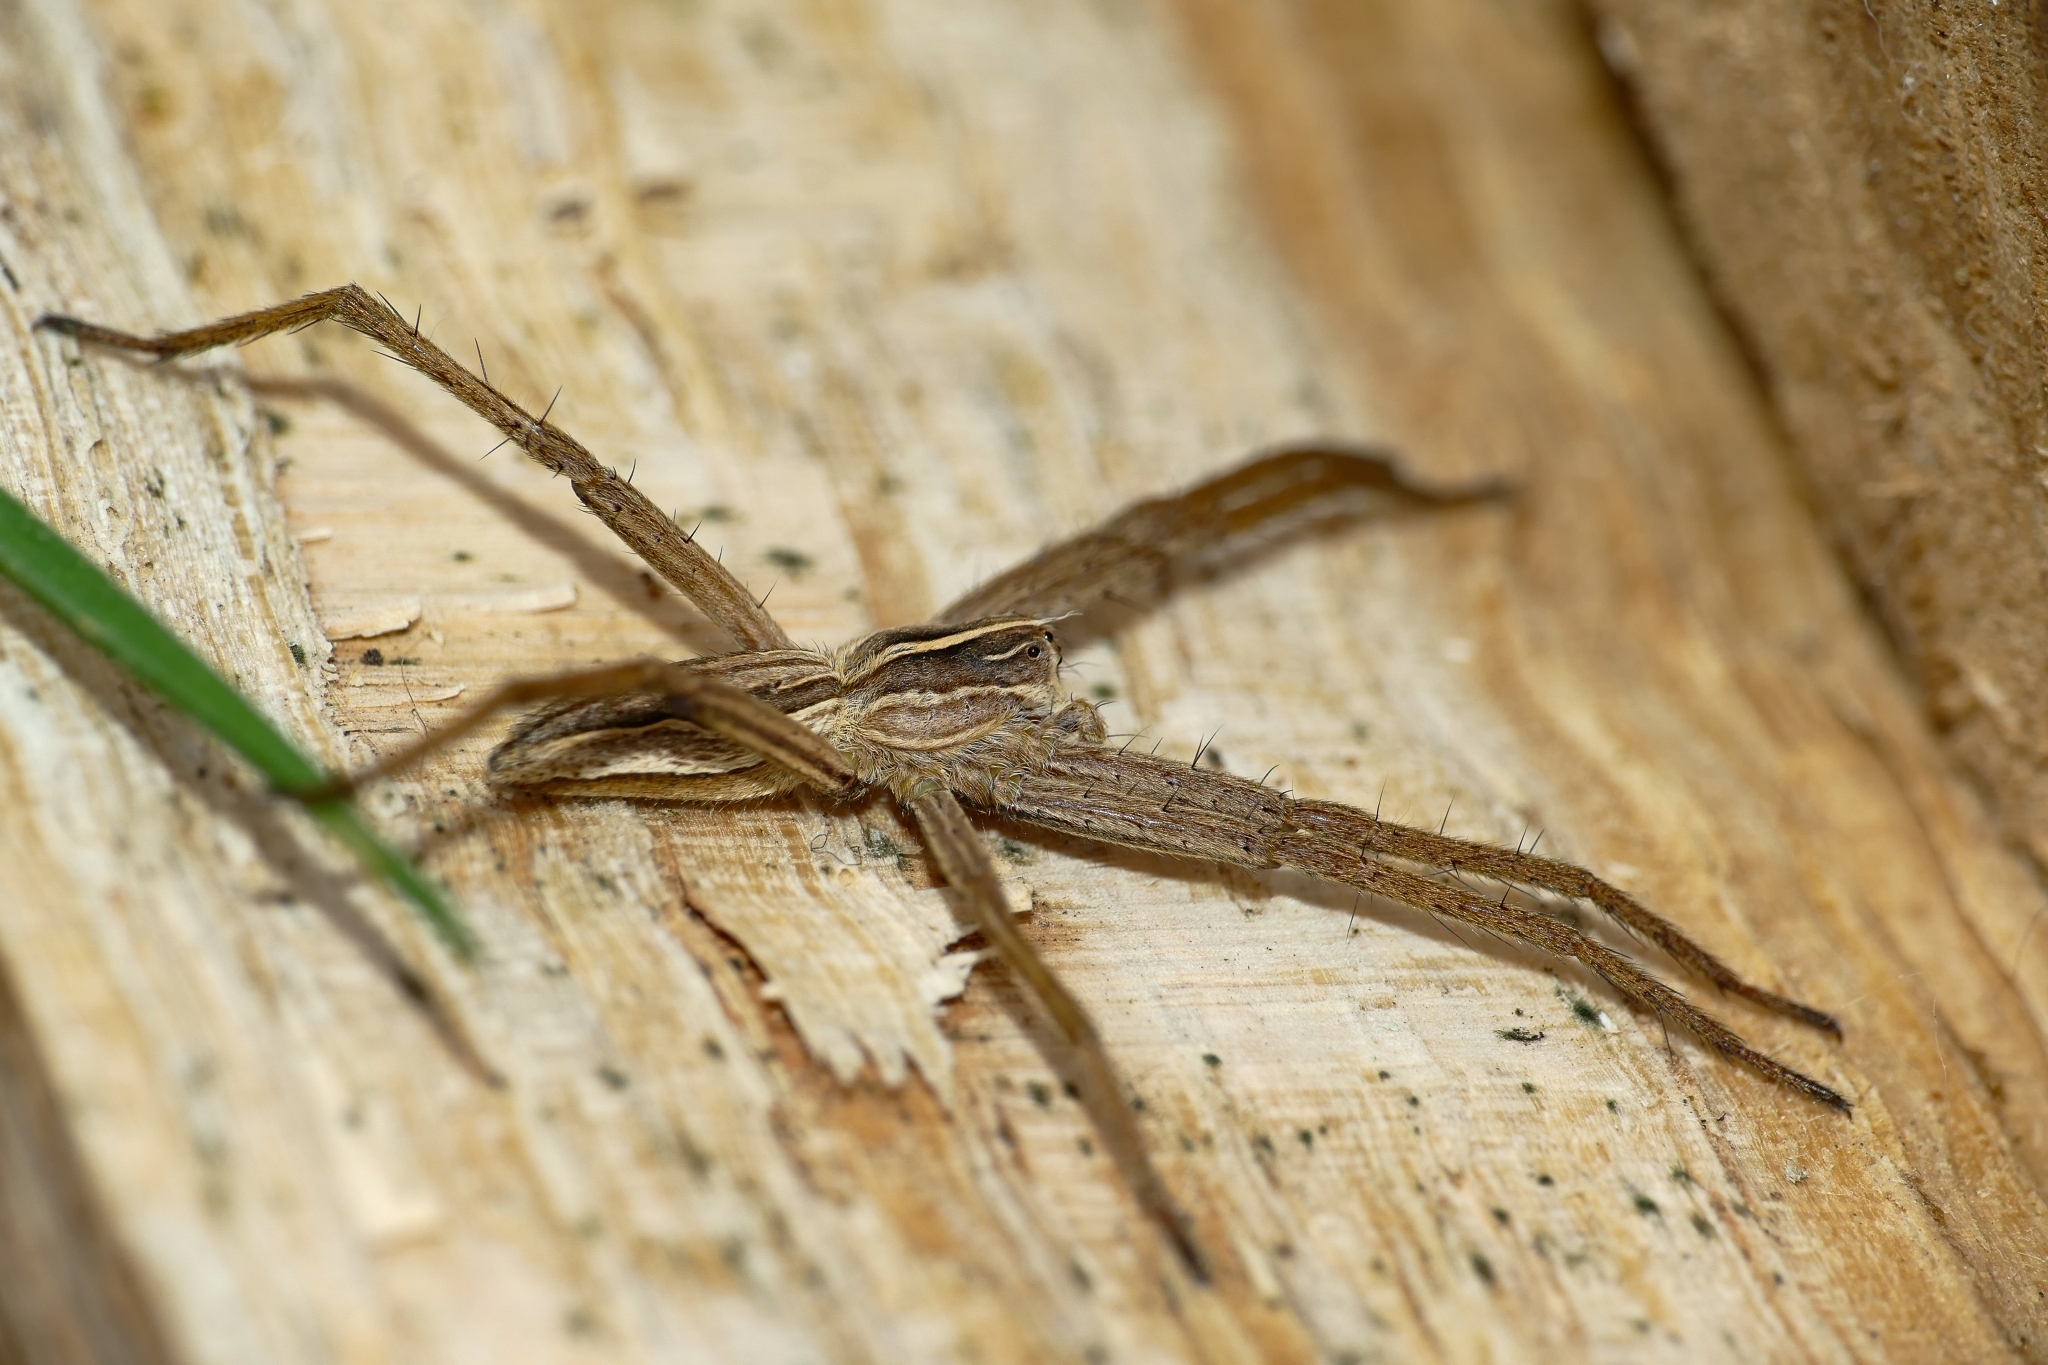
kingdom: Animalia
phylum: Arthropoda
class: Arachnida
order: Araneae
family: Pisauridae
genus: Pisaura
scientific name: Pisaura mirabilis
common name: Tent spider
